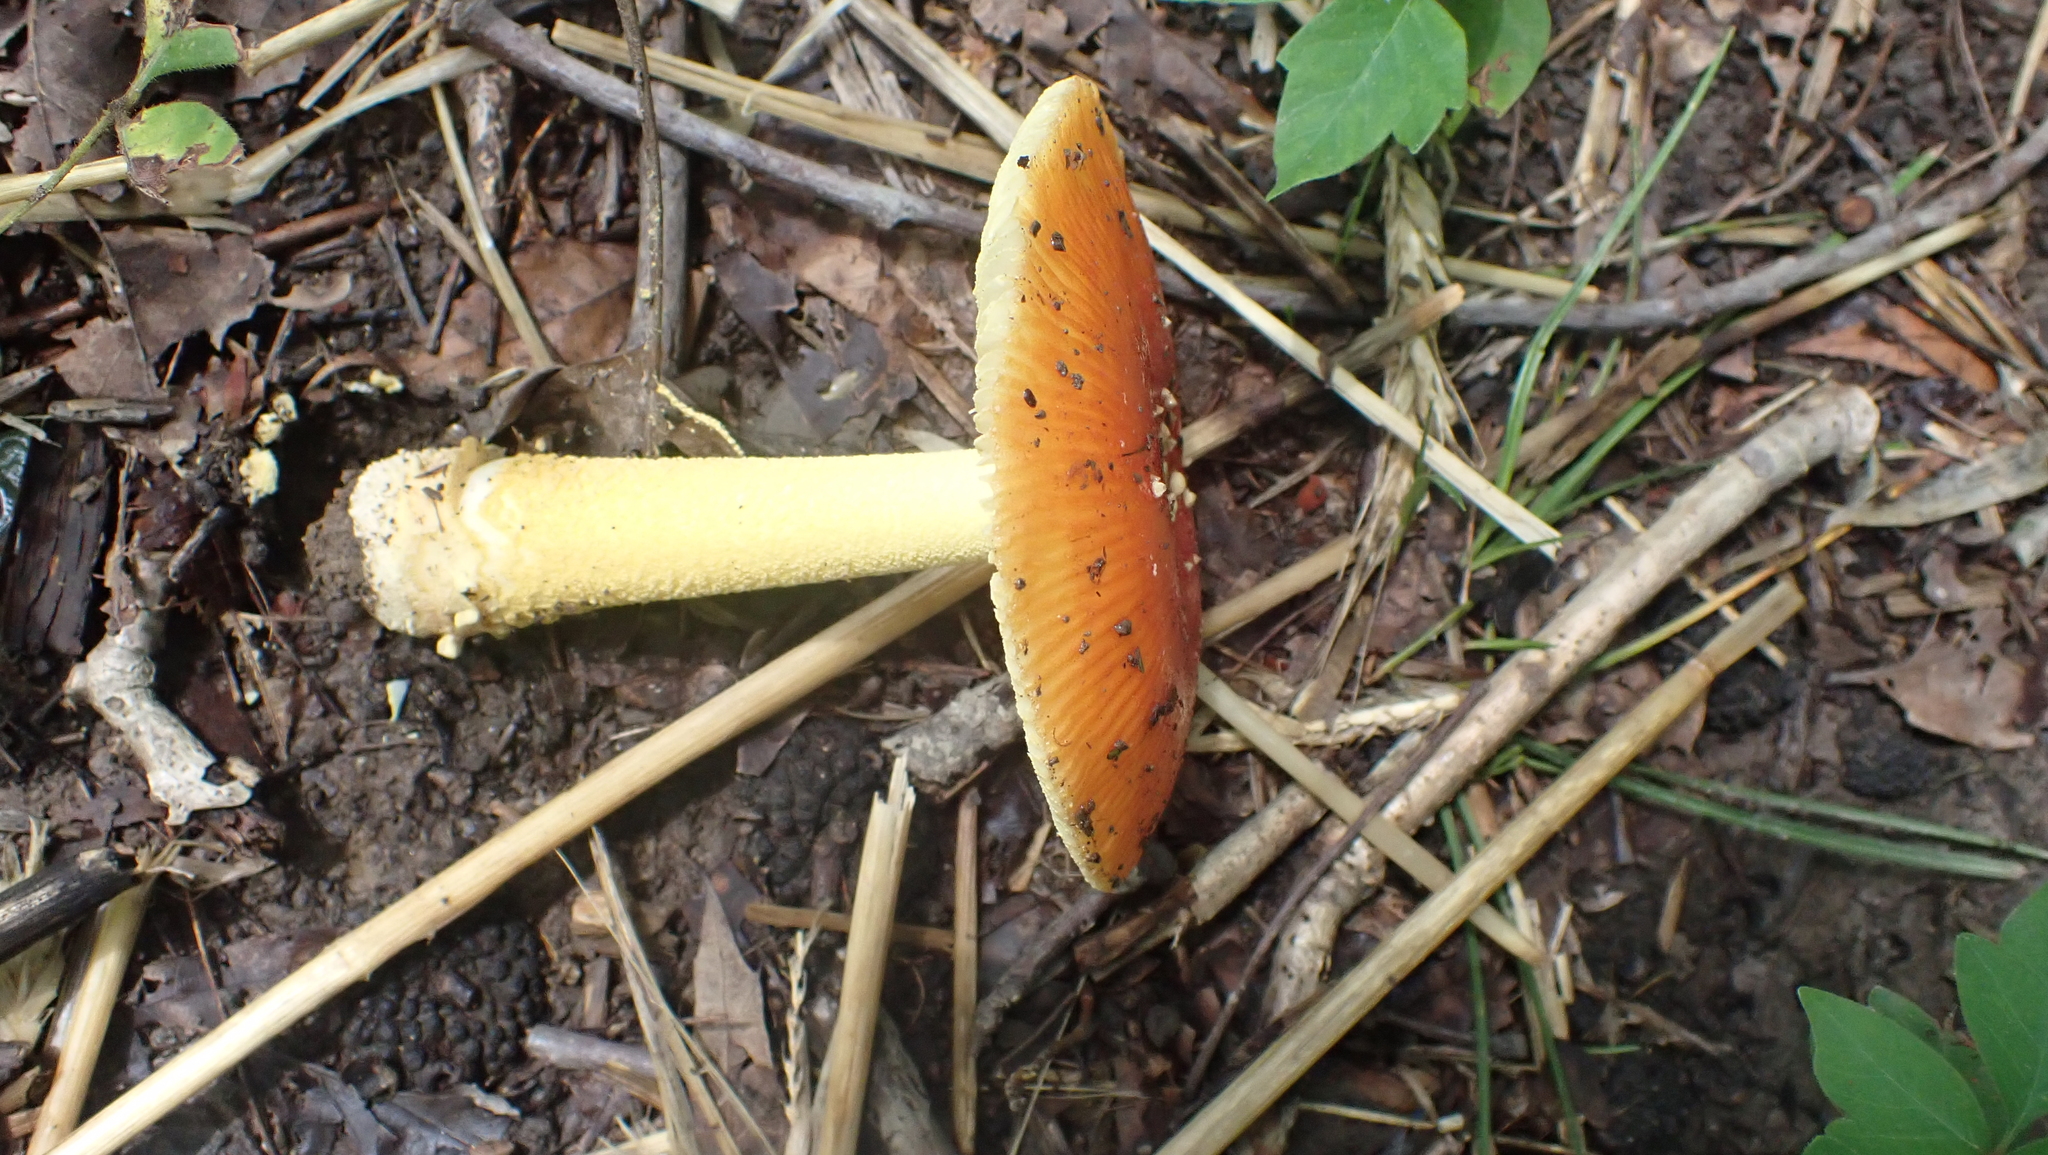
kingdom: Fungi
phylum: Basidiomycota
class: Agaricomycetes
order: Agaricales
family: Amanitaceae
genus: Amanita
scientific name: Amanita parcivolvata
